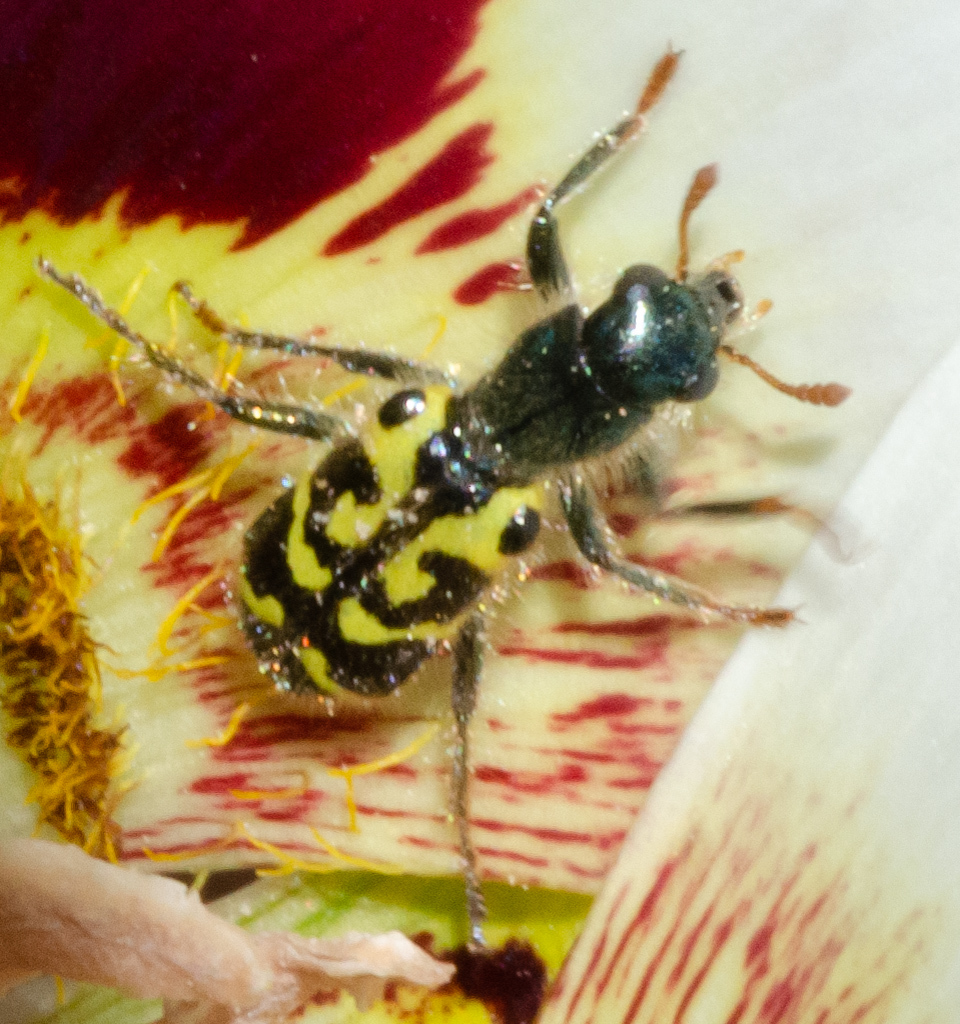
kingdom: Animalia
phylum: Arthropoda
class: Insecta
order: Coleoptera
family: Cleridae
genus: Trichodes
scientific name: Trichodes ornatus
